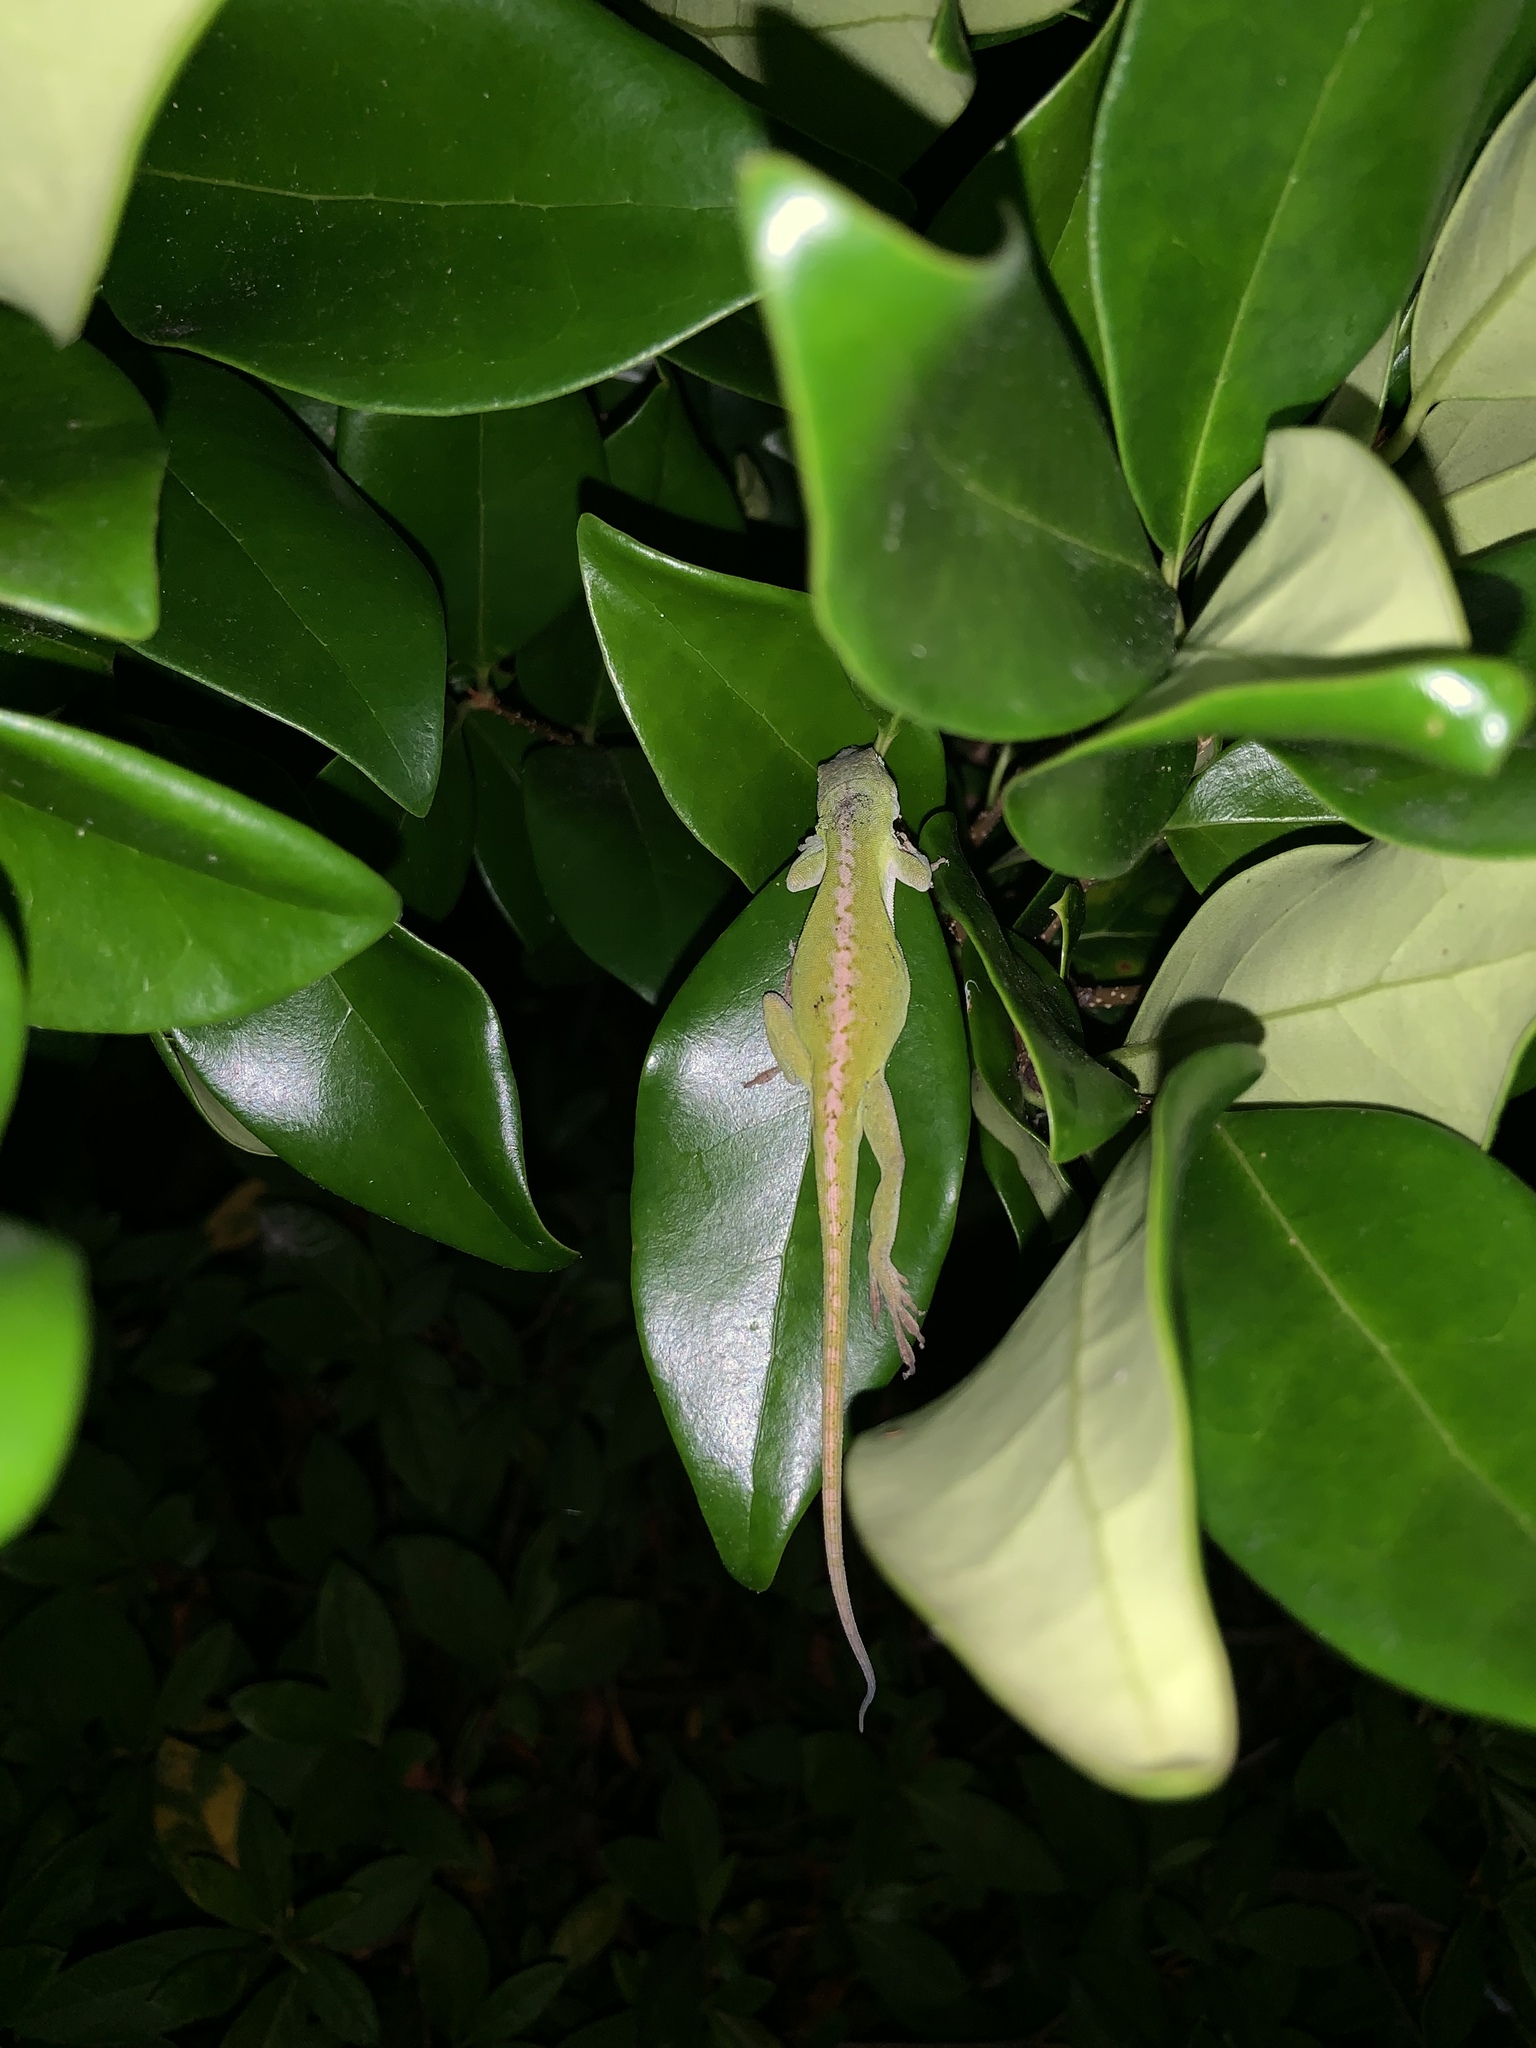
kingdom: Animalia
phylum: Chordata
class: Squamata
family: Dactyloidae
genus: Anolis
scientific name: Anolis carolinensis
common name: Green anole
